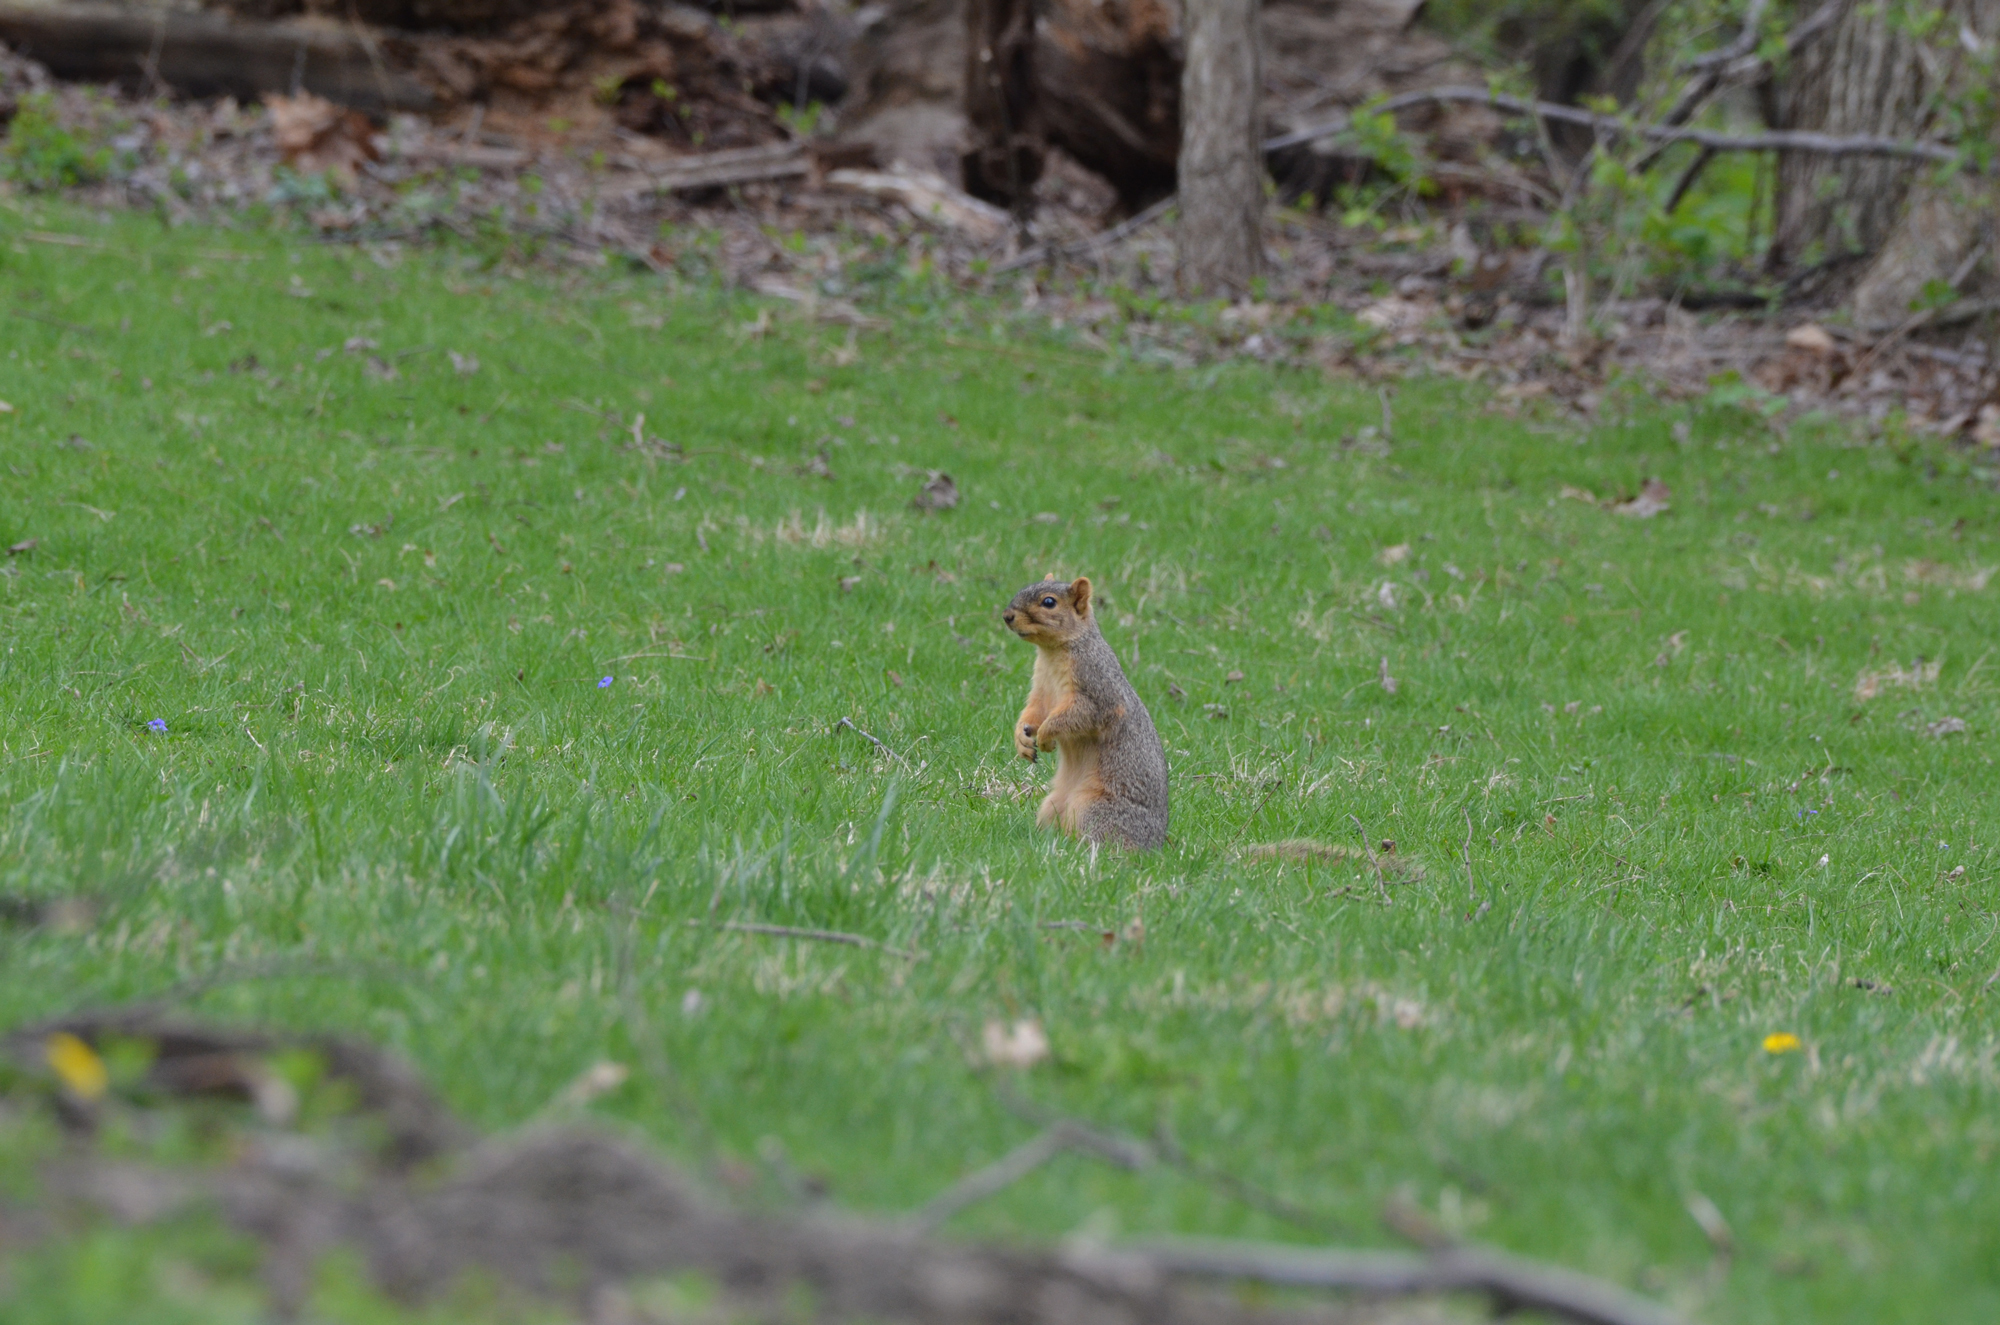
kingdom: Animalia
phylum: Chordata
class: Mammalia
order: Rodentia
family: Sciuridae
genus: Sciurus
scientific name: Sciurus niger
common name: Fox squirrel
